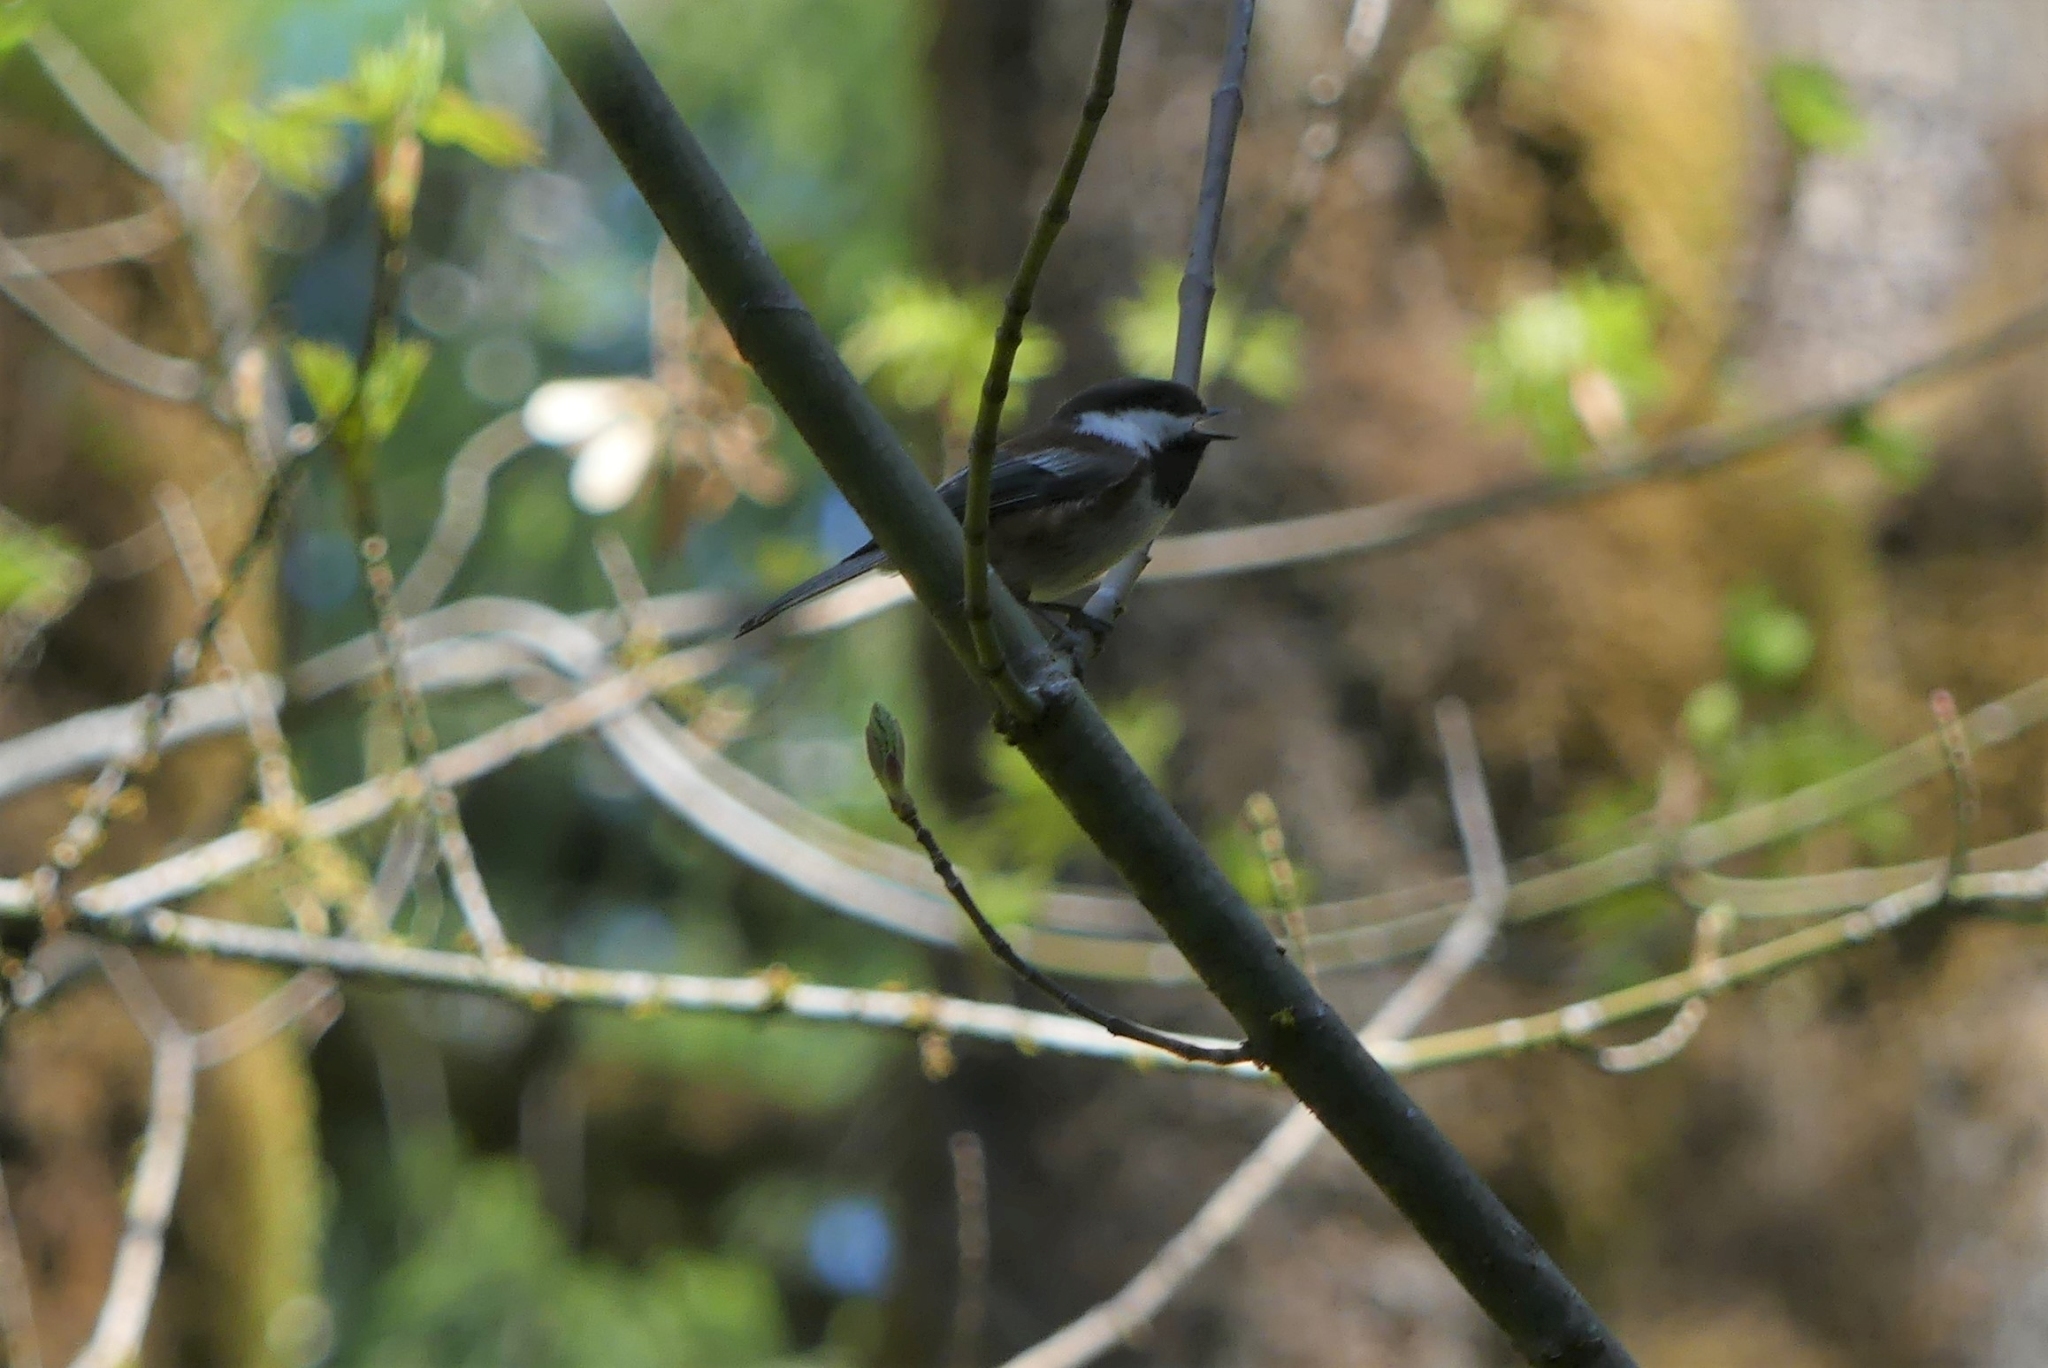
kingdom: Animalia
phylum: Chordata
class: Aves
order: Passeriformes
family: Paridae
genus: Poecile
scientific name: Poecile rufescens
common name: Chestnut-backed chickadee
